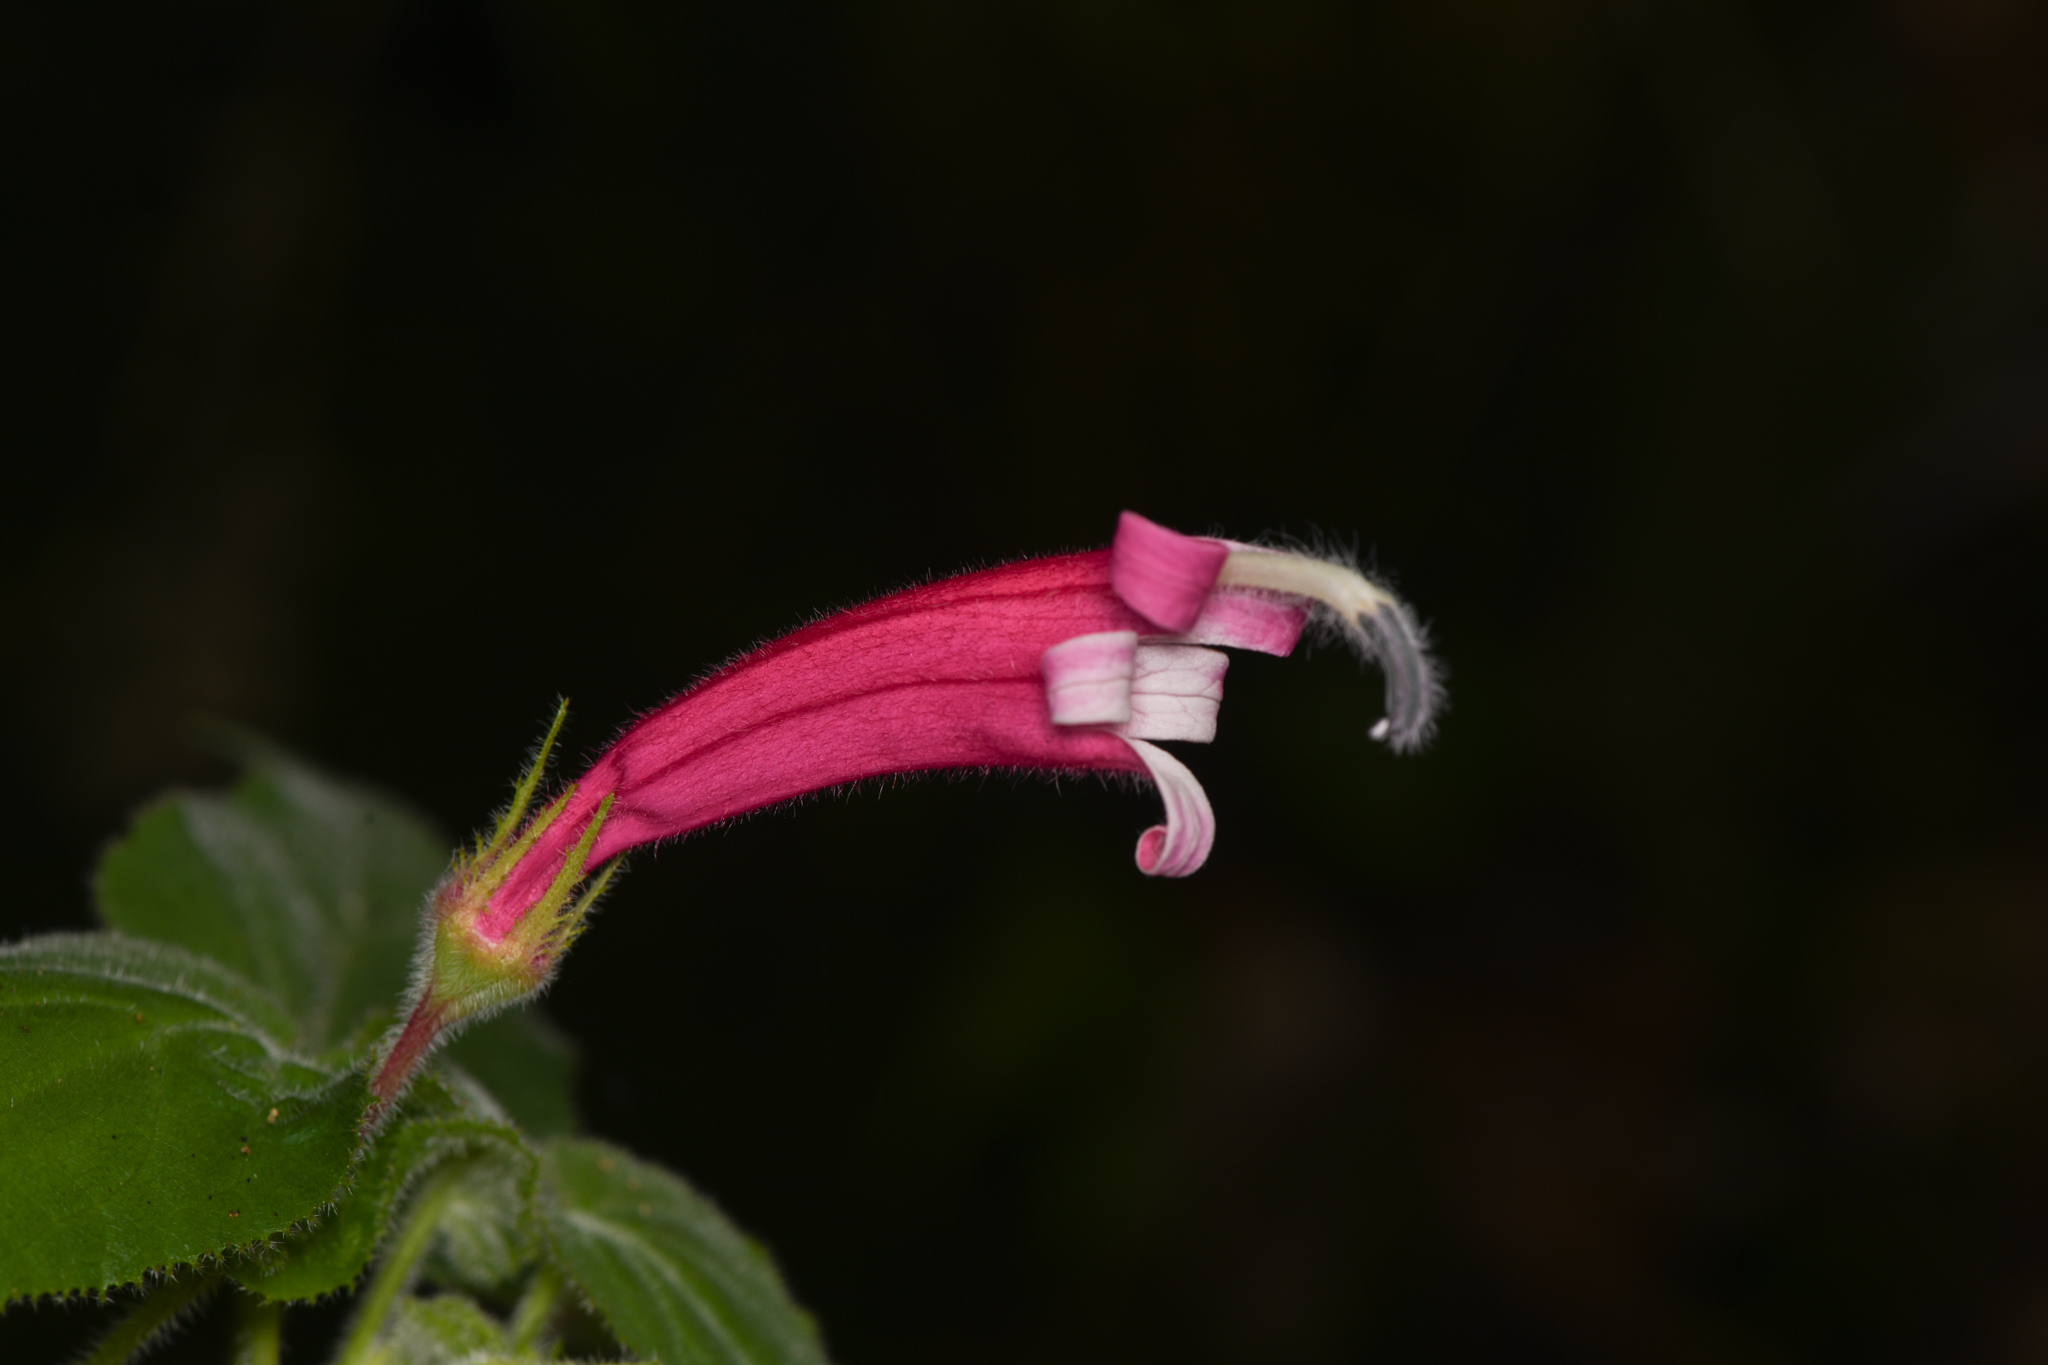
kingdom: Plantae
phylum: Tracheophyta
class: Magnoliopsida
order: Asterales
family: Campanulaceae
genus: Siphocampylus
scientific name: Siphocampylus nematosepalus
